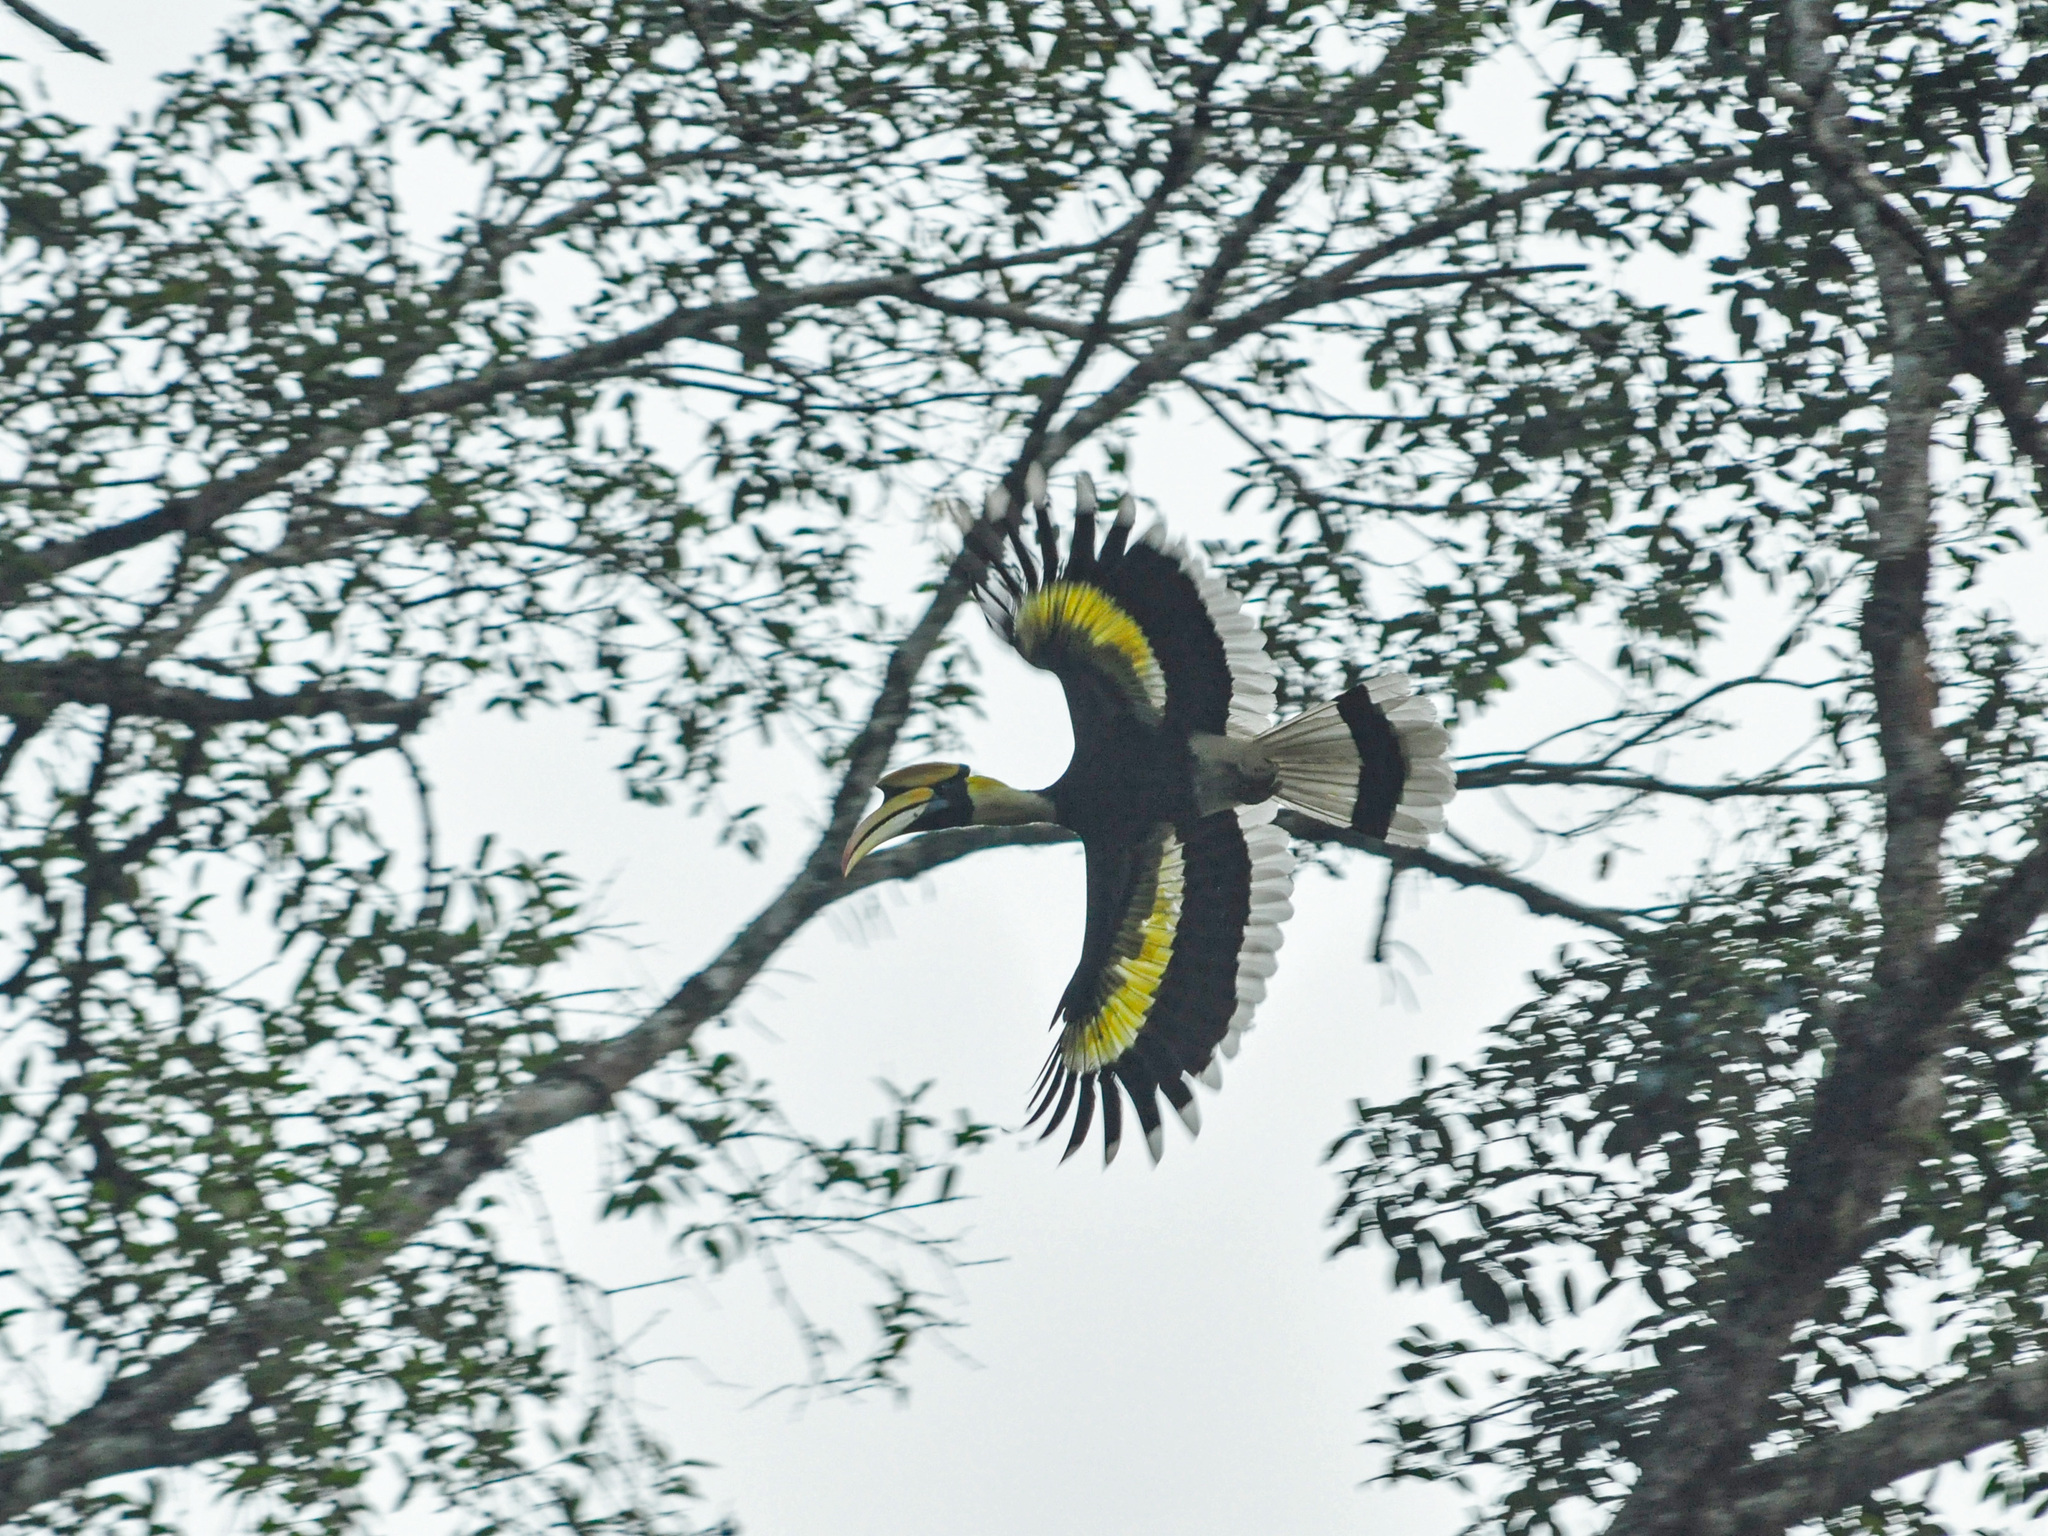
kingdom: Animalia
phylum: Chordata
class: Aves
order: Bucerotiformes
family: Bucerotidae
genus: Buceros
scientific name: Buceros bicornis
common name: Great hornbill
